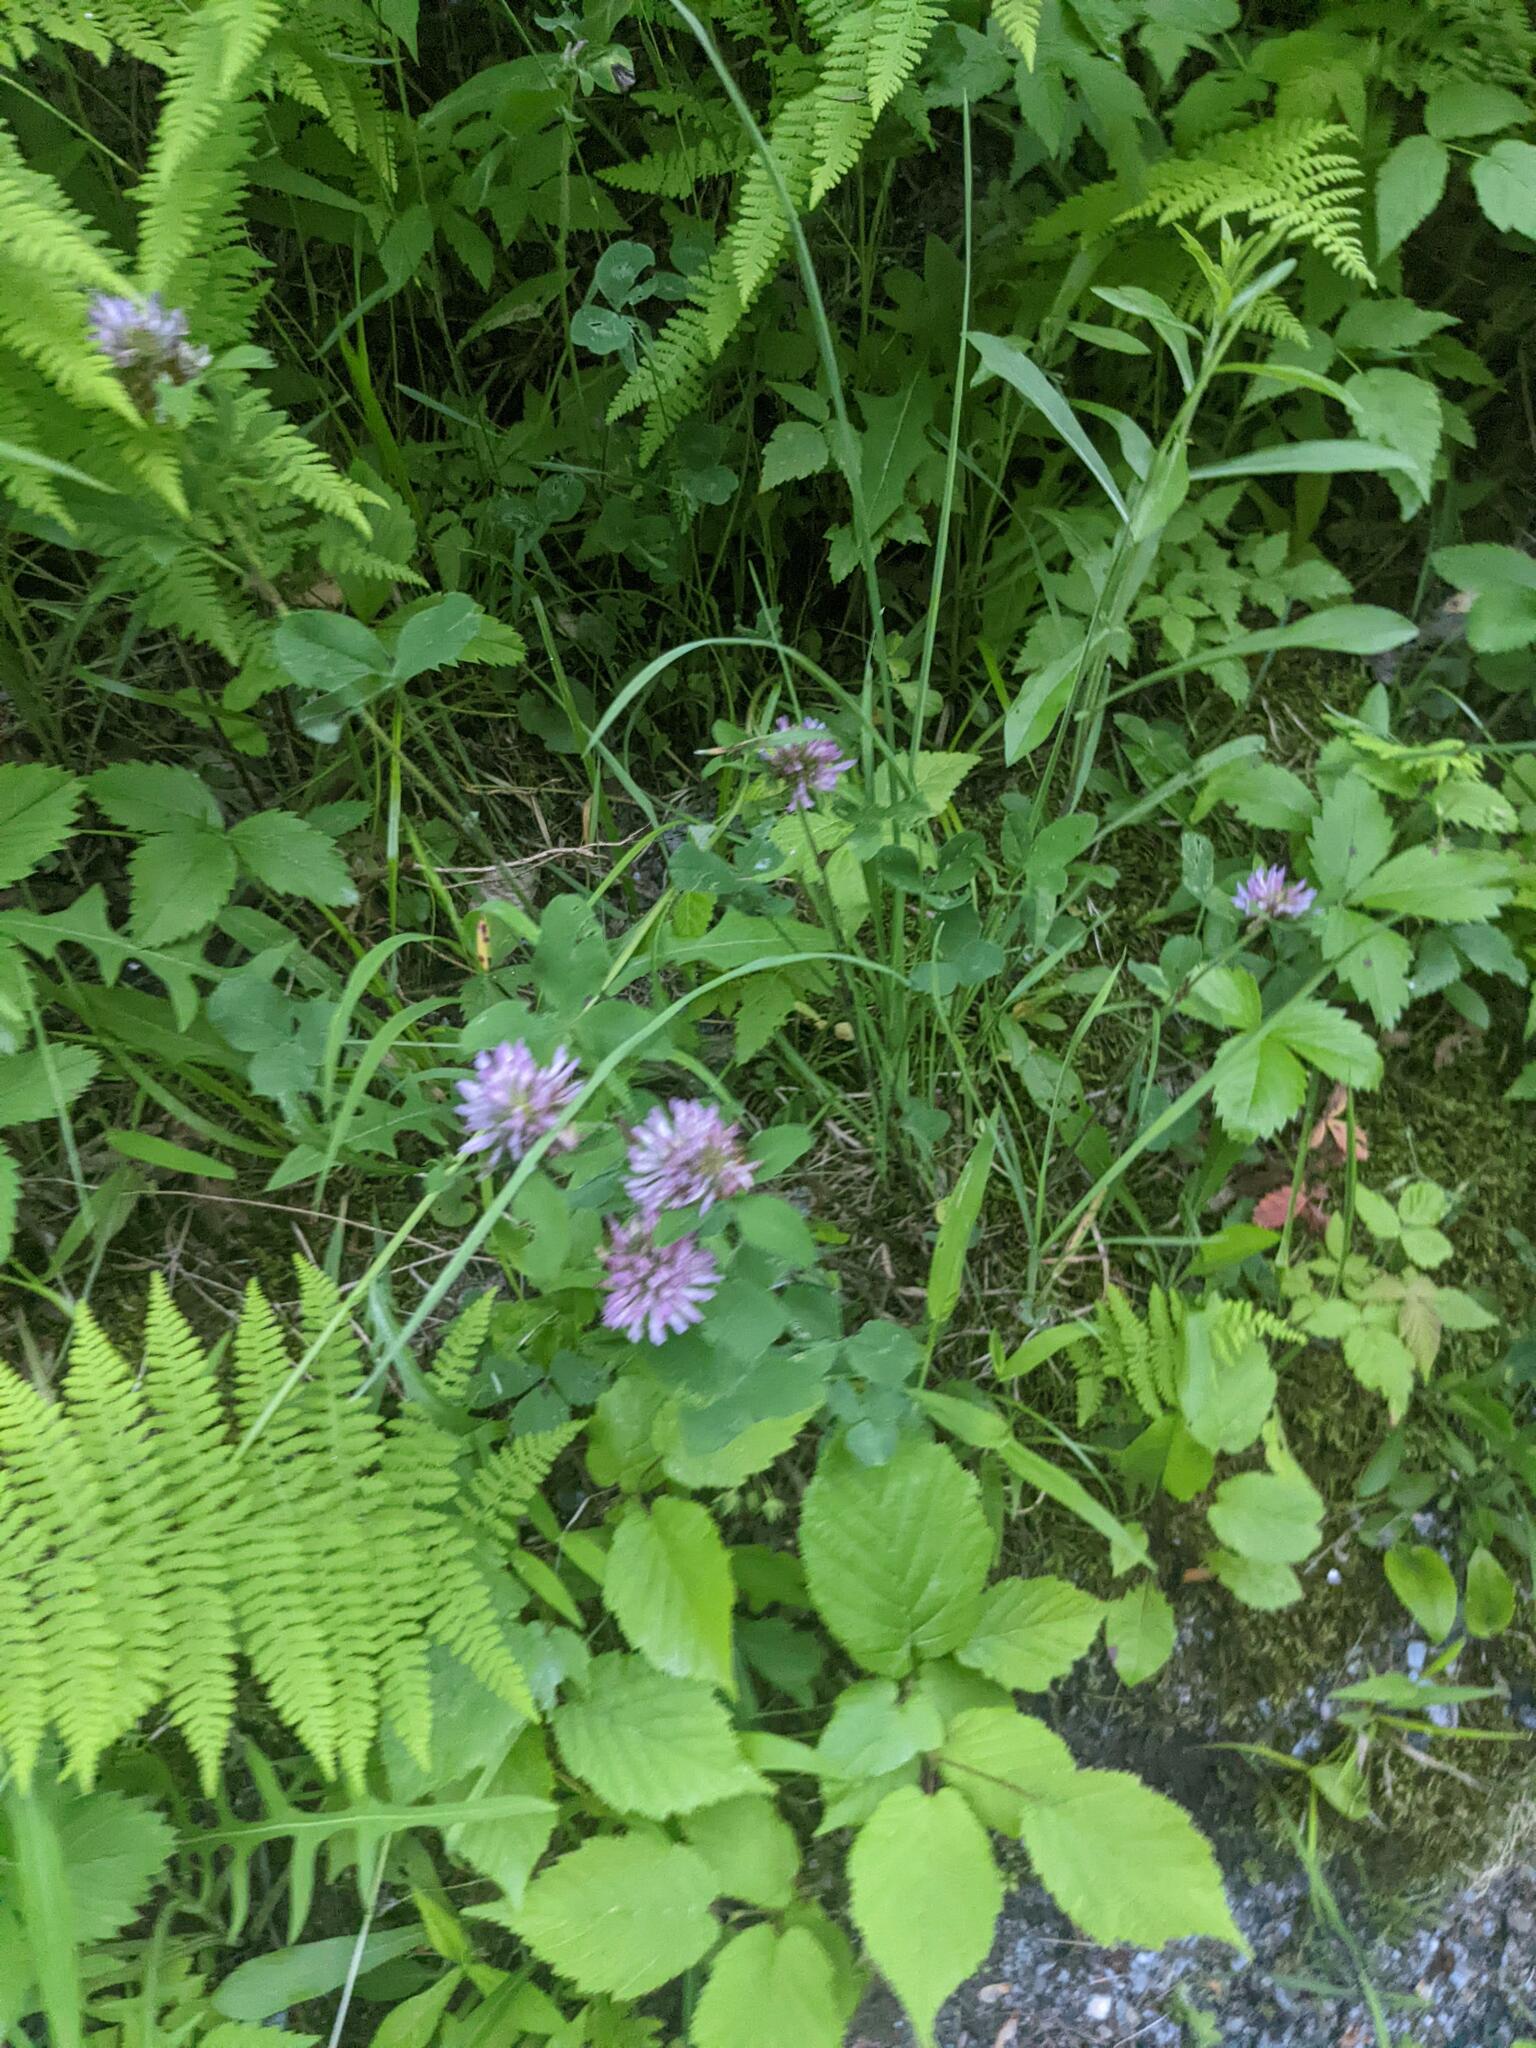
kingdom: Plantae
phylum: Tracheophyta
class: Magnoliopsida
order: Fabales
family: Fabaceae
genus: Trifolium
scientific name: Trifolium pratense
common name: Red clover
